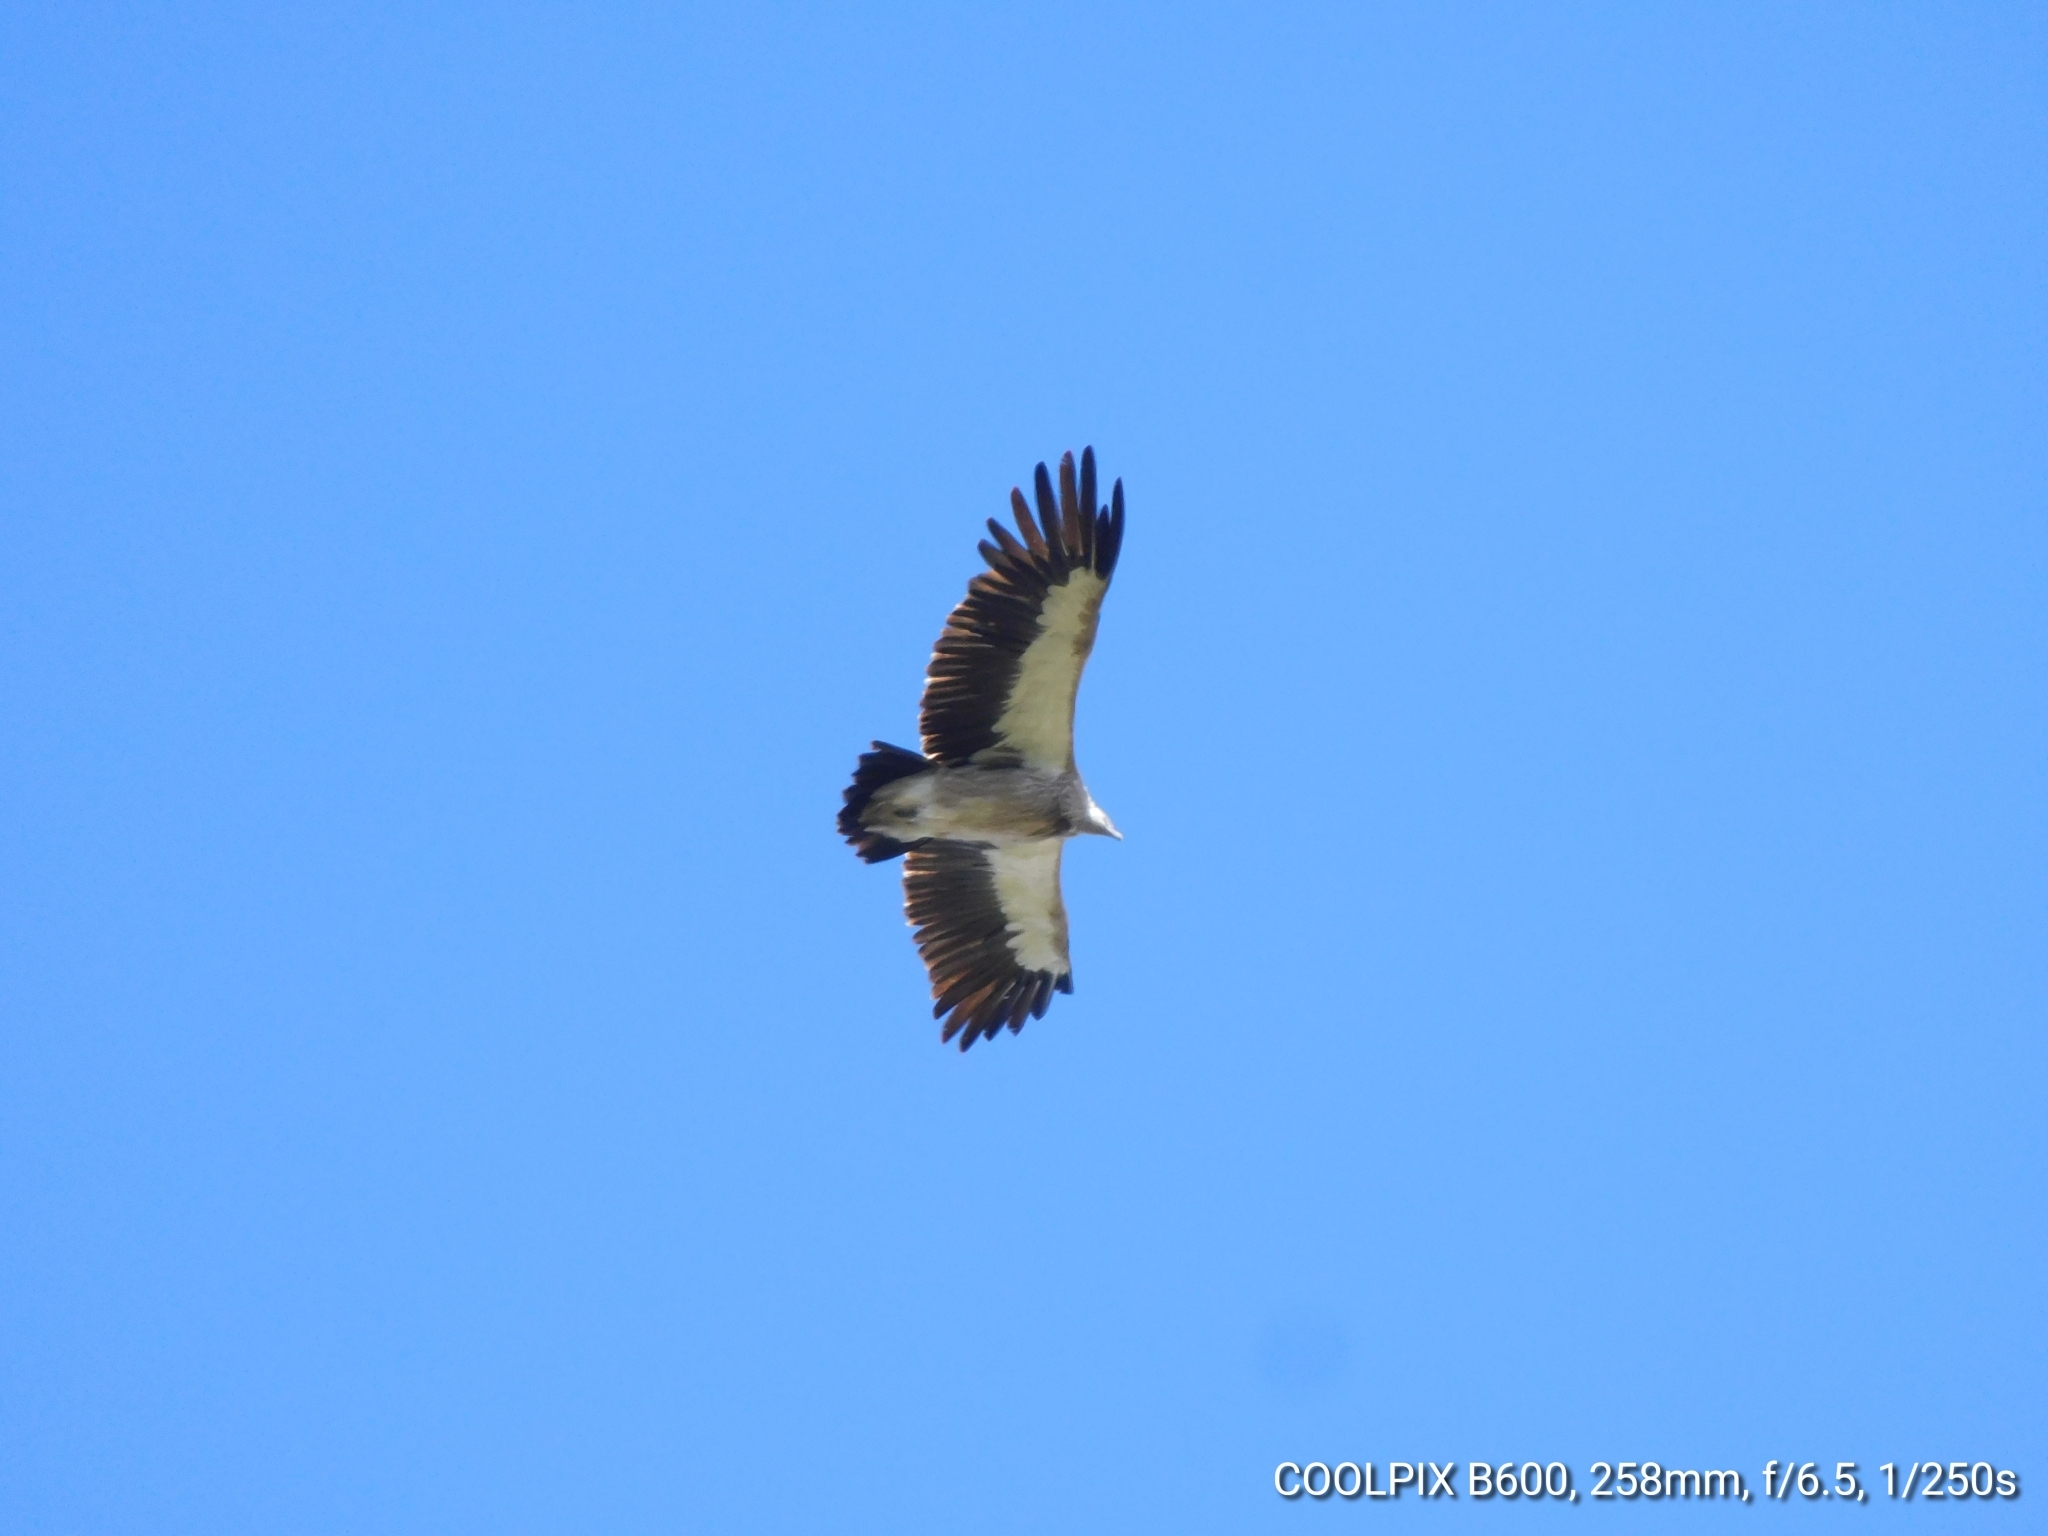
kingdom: Animalia
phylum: Chordata
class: Aves
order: Accipitriformes
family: Accipitridae
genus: Gyps
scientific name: Gyps himalayensis
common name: Himalayan griffon
